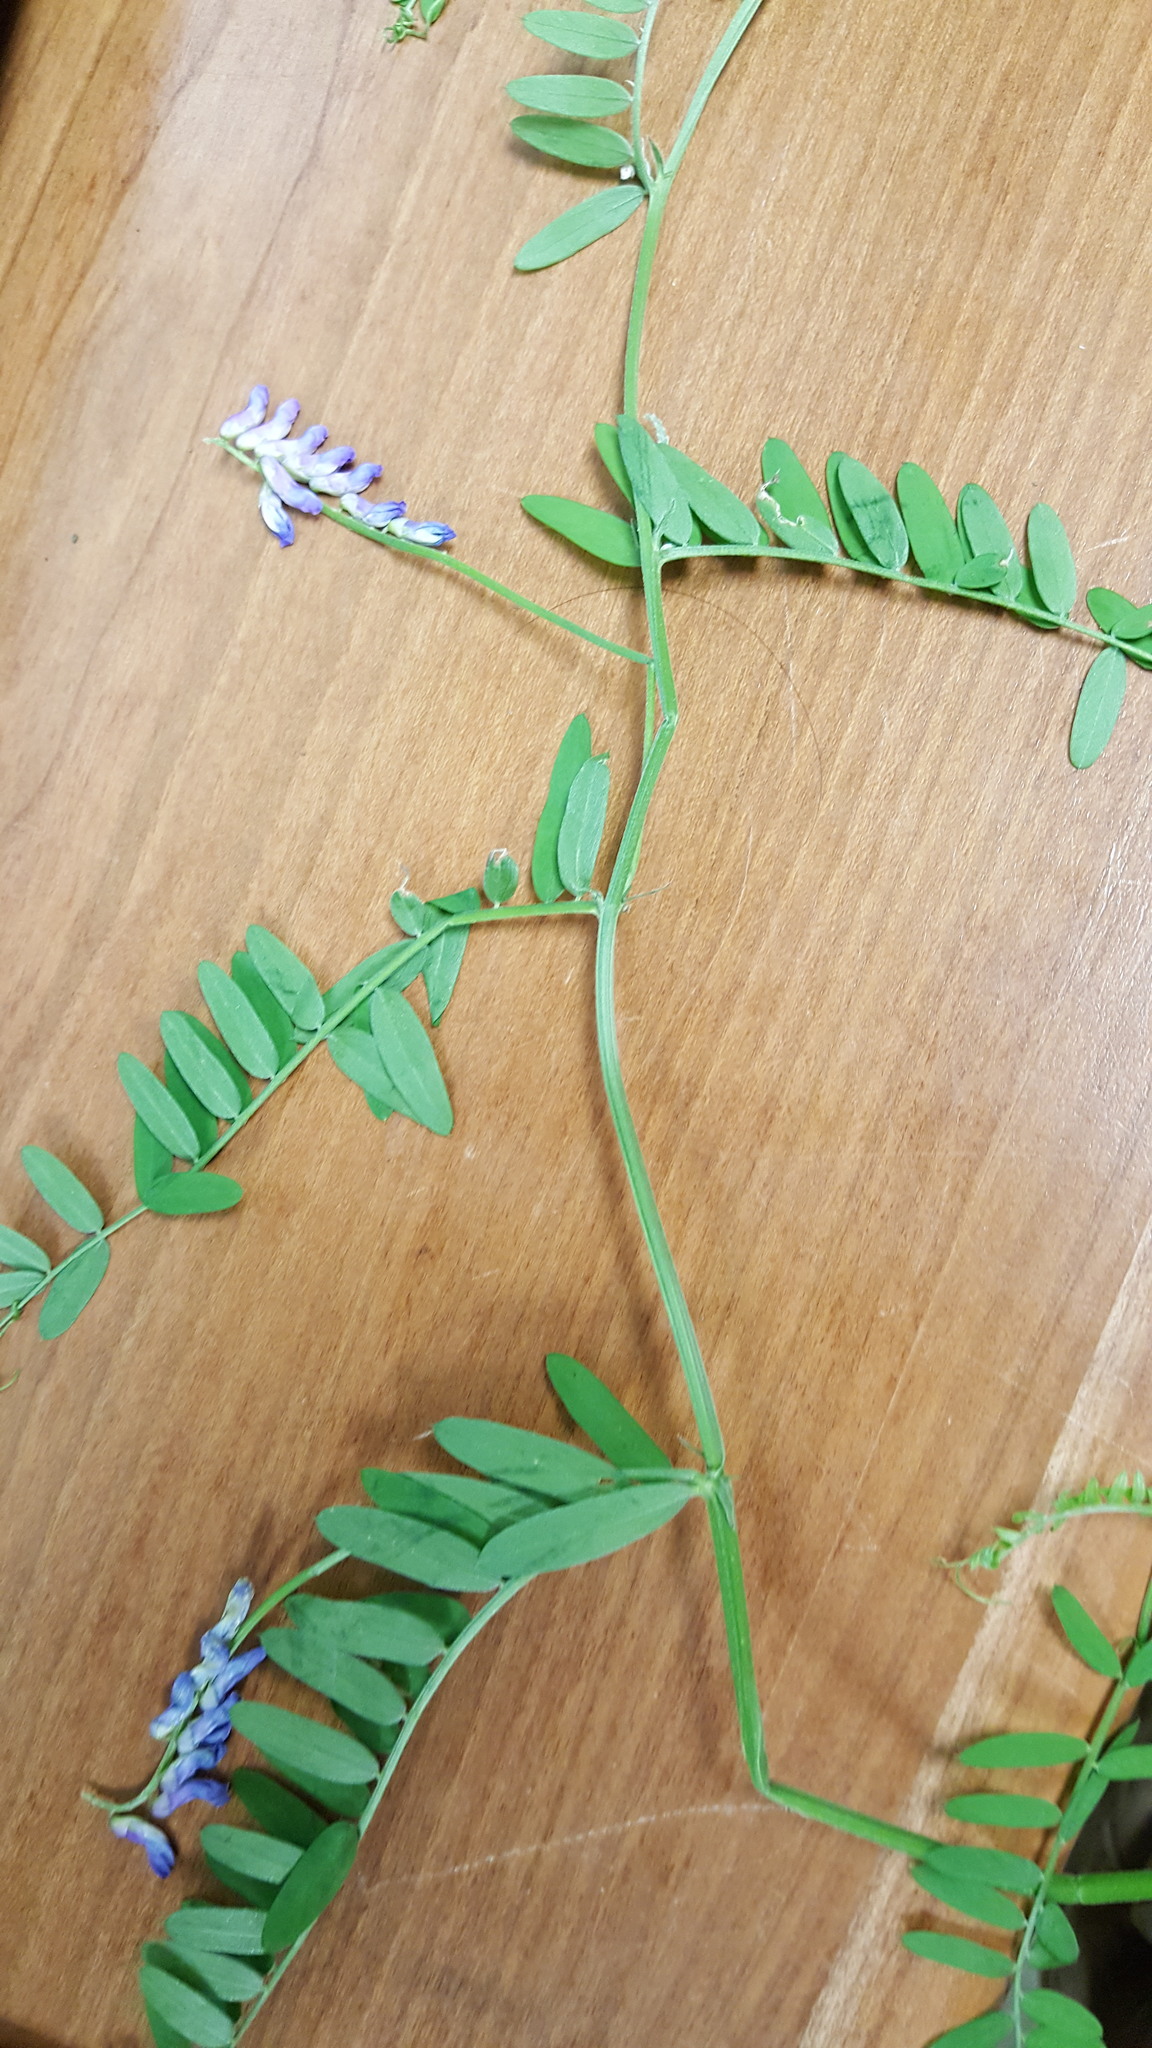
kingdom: Plantae
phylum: Tracheophyta
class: Magnoliopsida
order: Fabales
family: Fabaceae
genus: Vicia
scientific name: Vicia cracca
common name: Bird vetch
